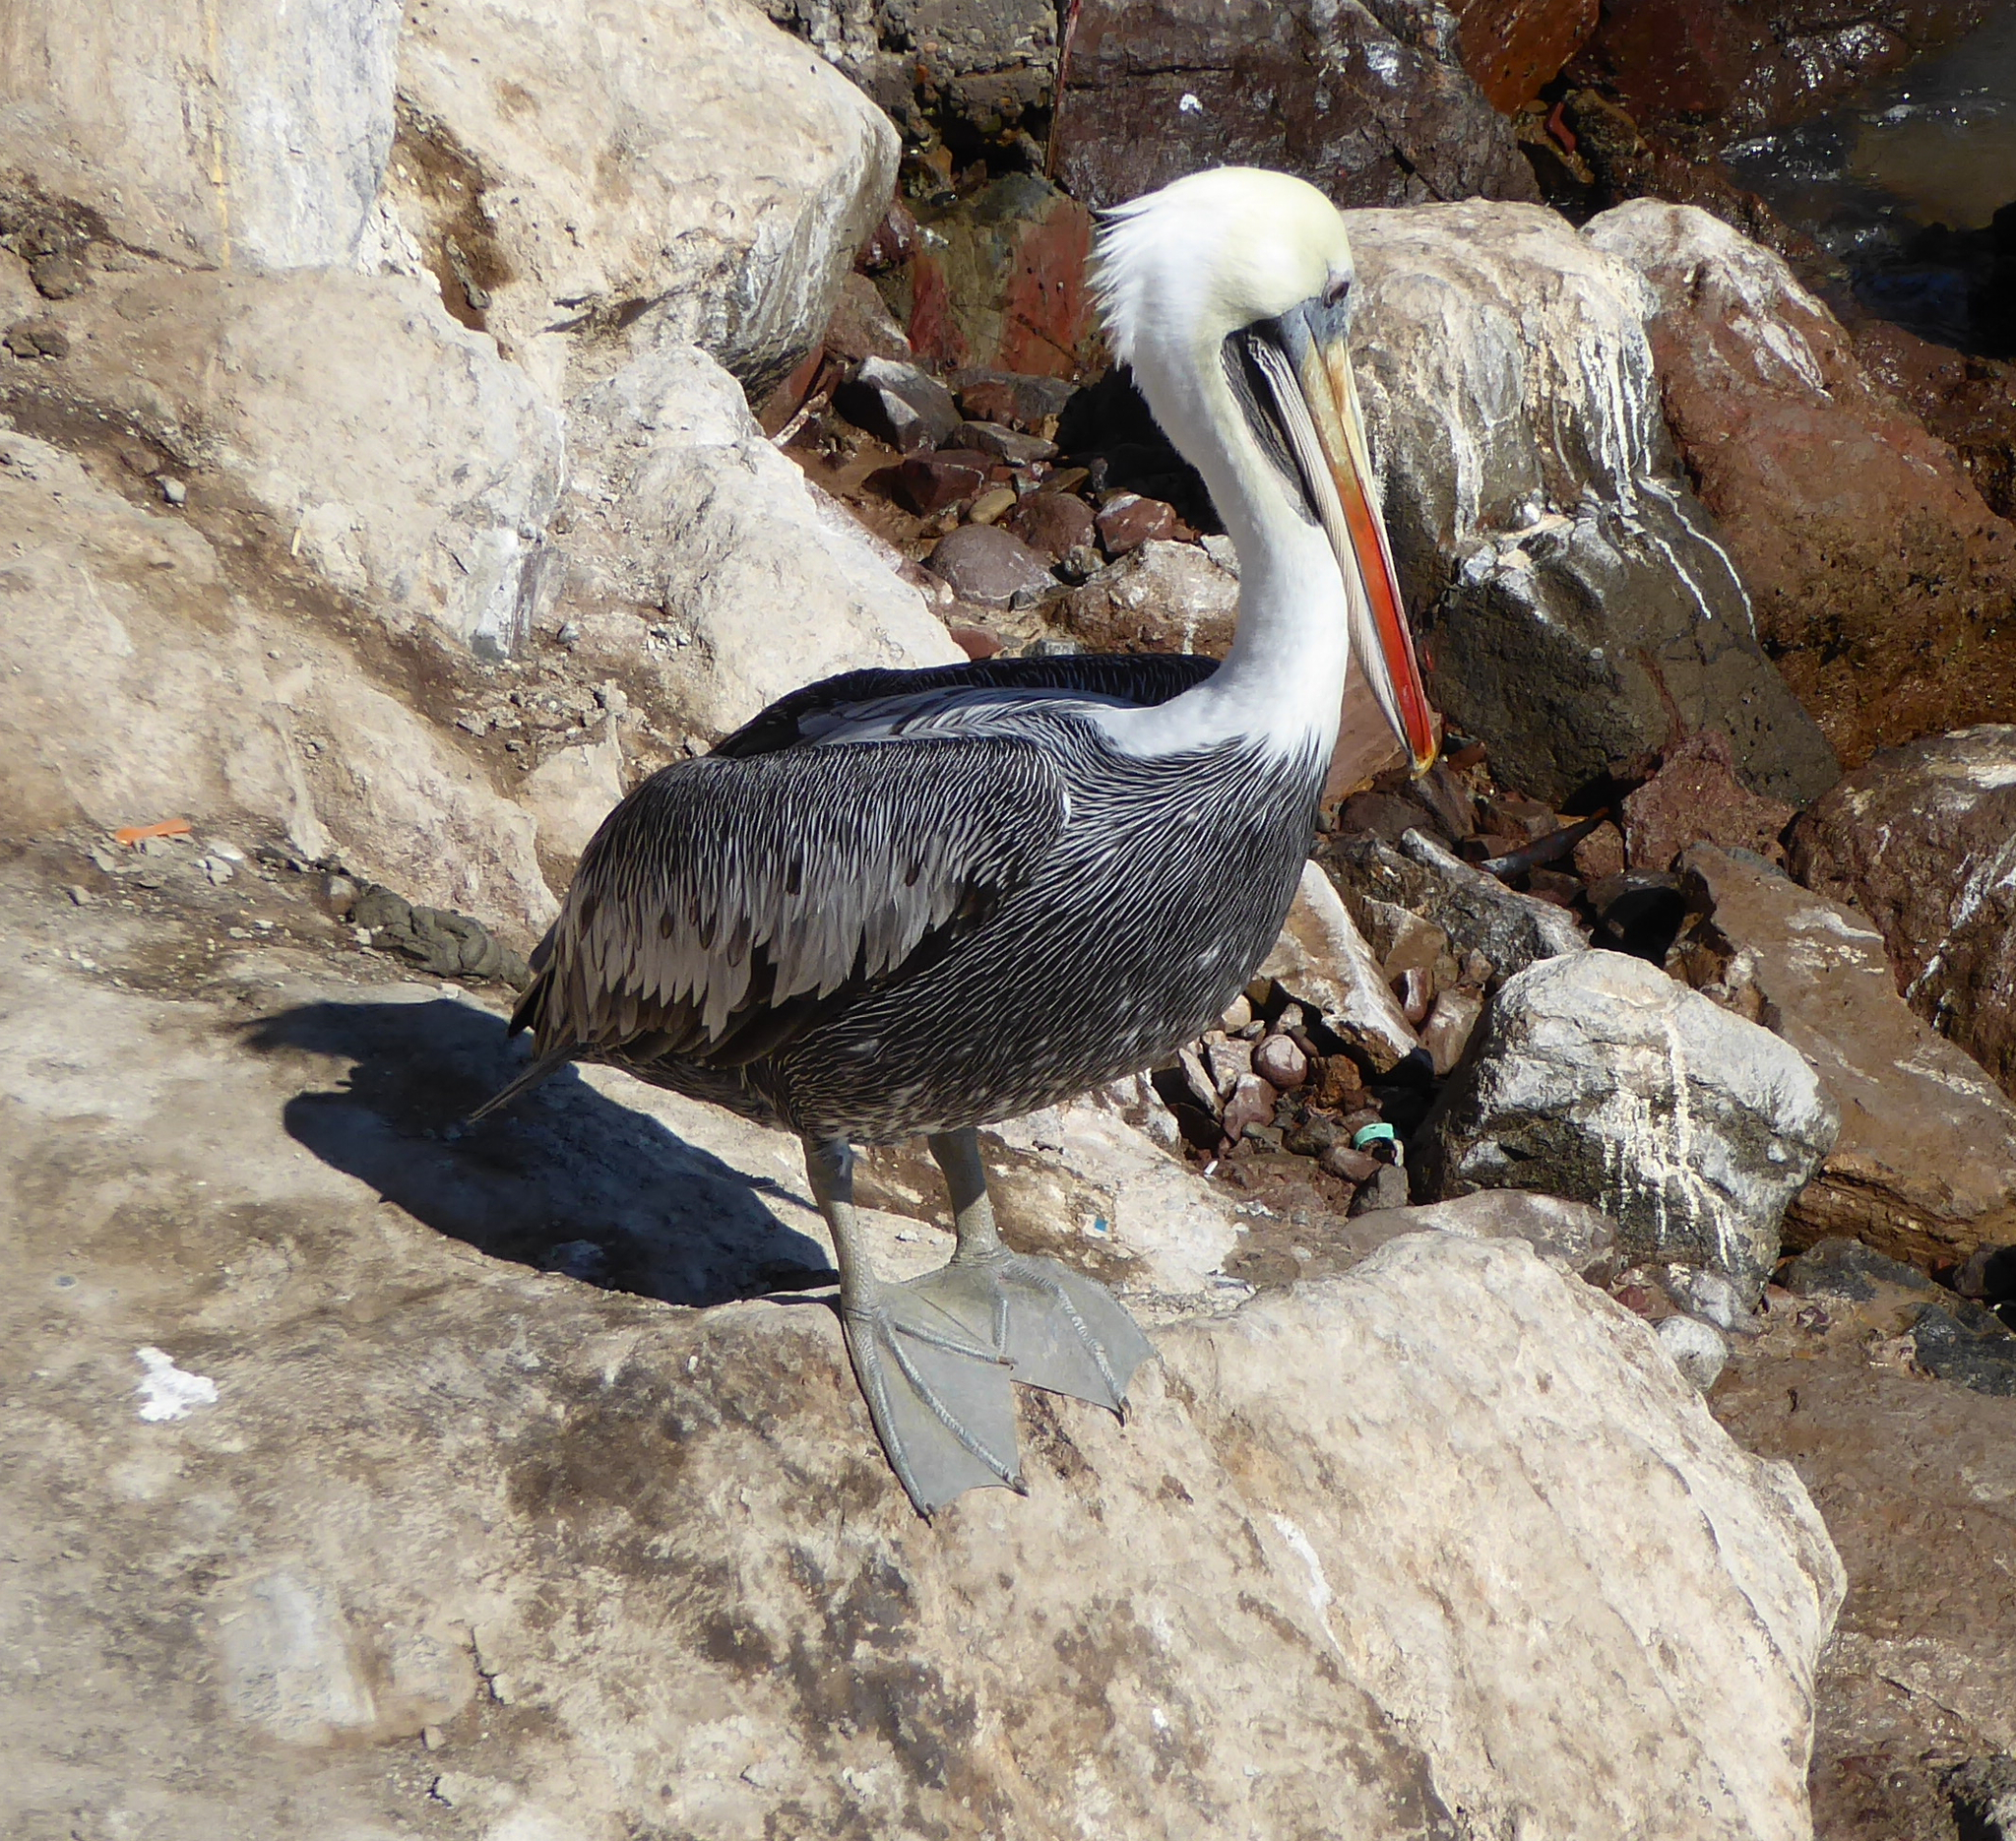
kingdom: Animalia
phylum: Chordata
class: Aves
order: Pelecaniformes
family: Pelecanidae
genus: Pelecanus
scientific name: Pelecanus thagus
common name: Peruvian pelican
